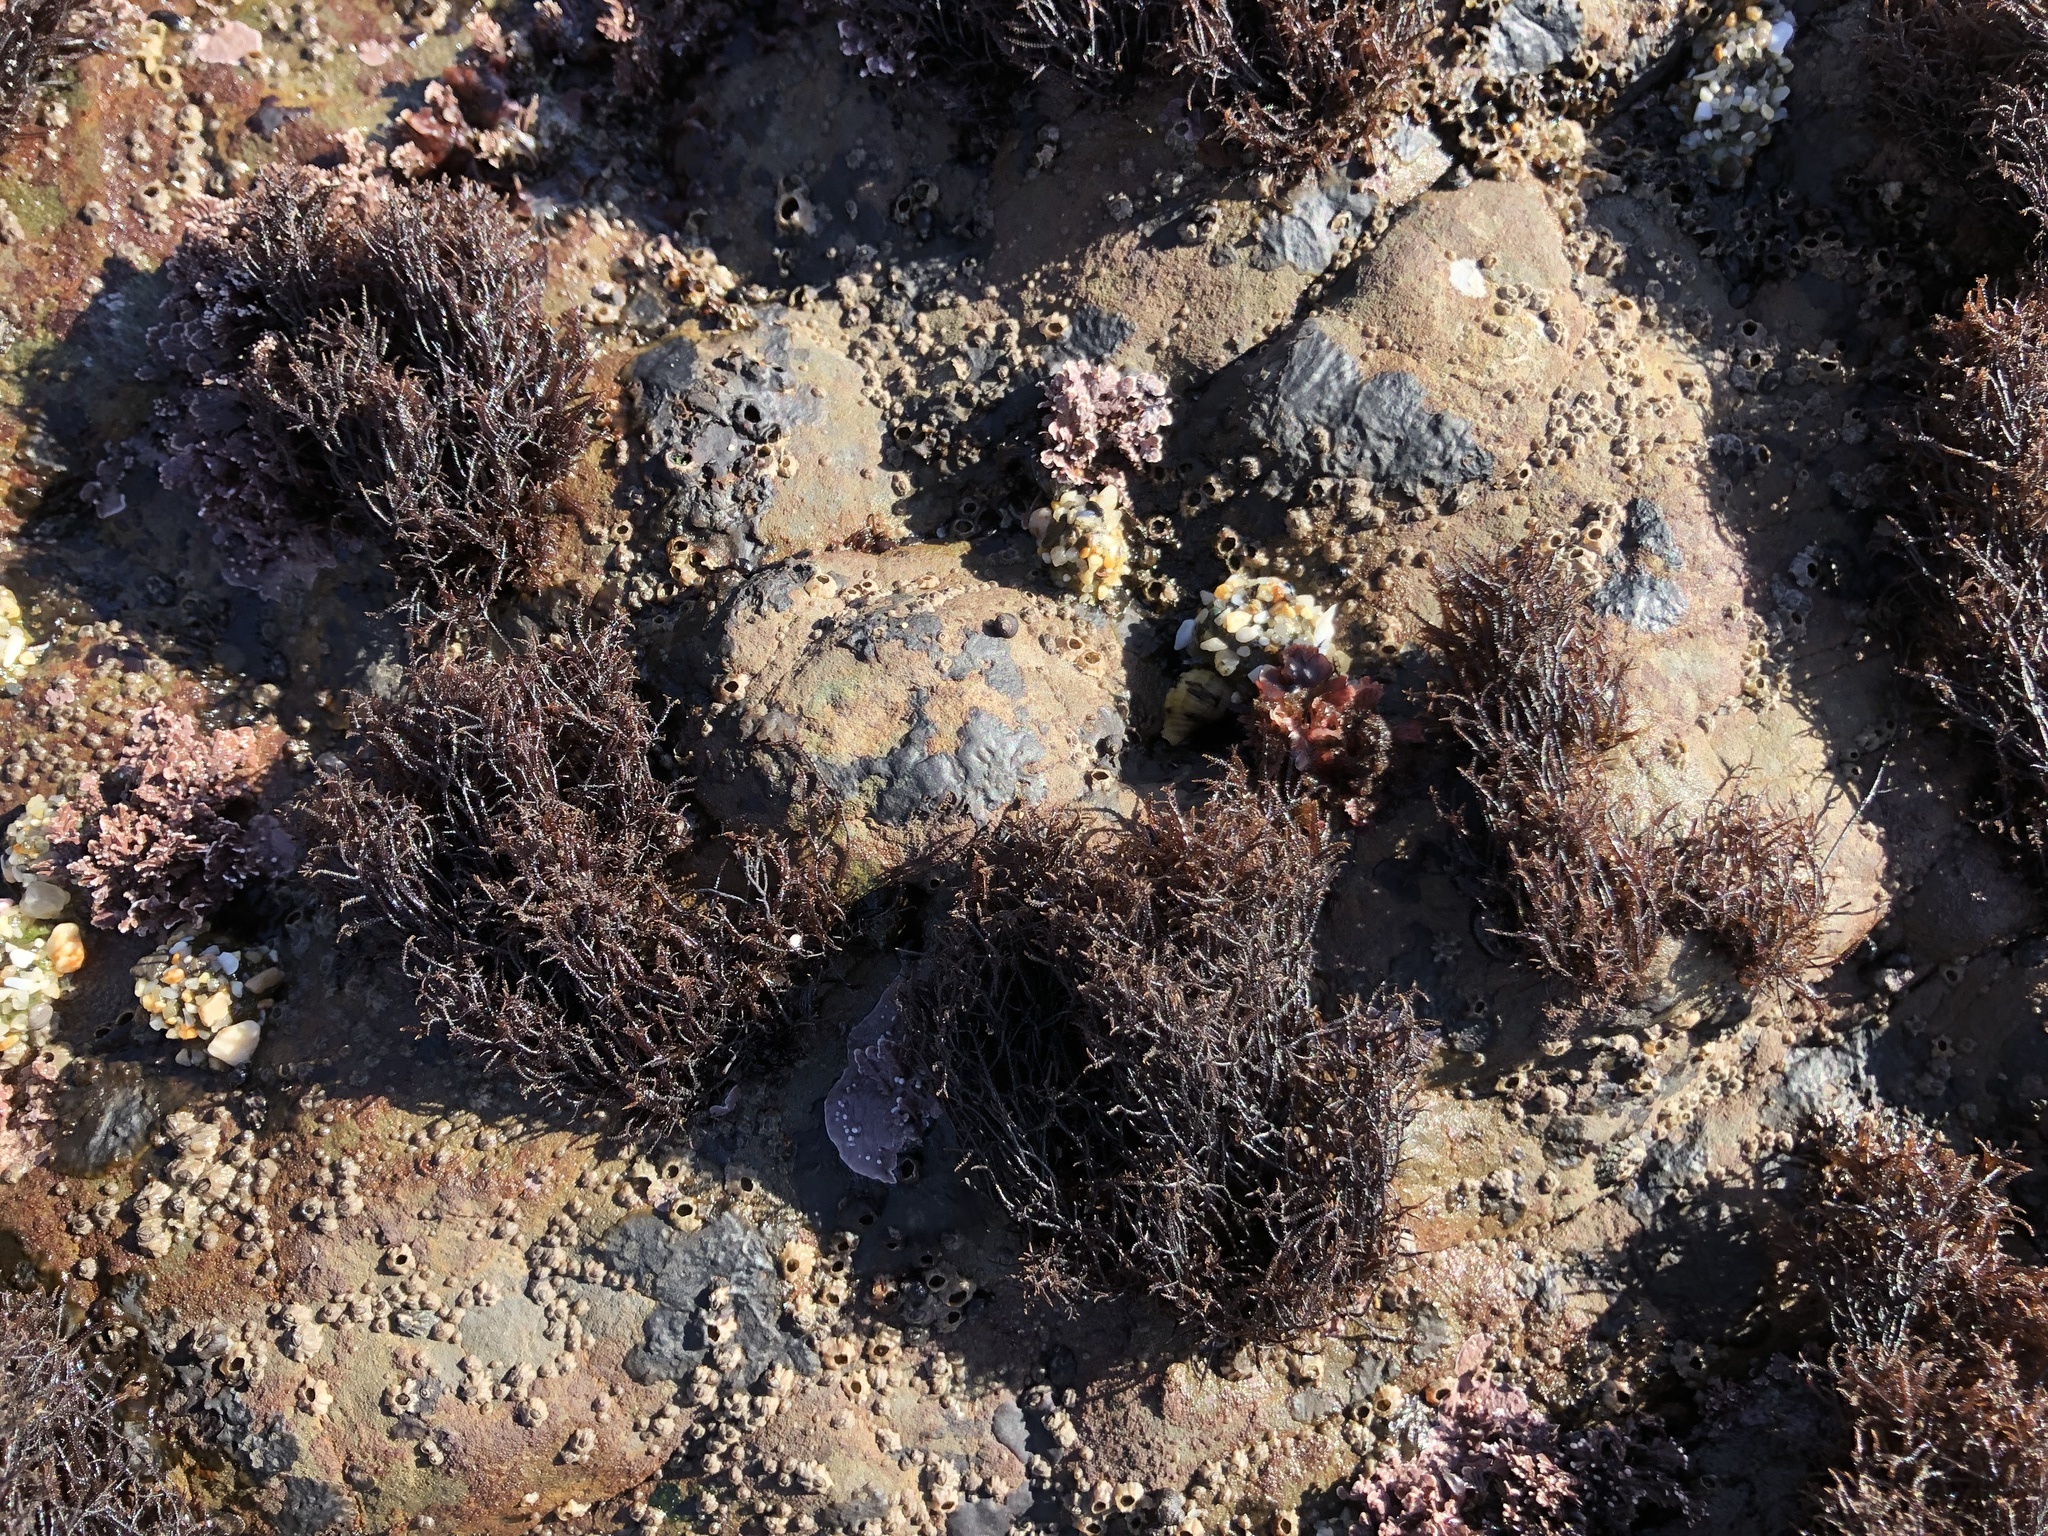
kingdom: Plantae
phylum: Rhodophyta
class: Florideophyceae
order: Gigartinales
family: Endocladiaceae
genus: Endocladia
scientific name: Endocladia muricata
